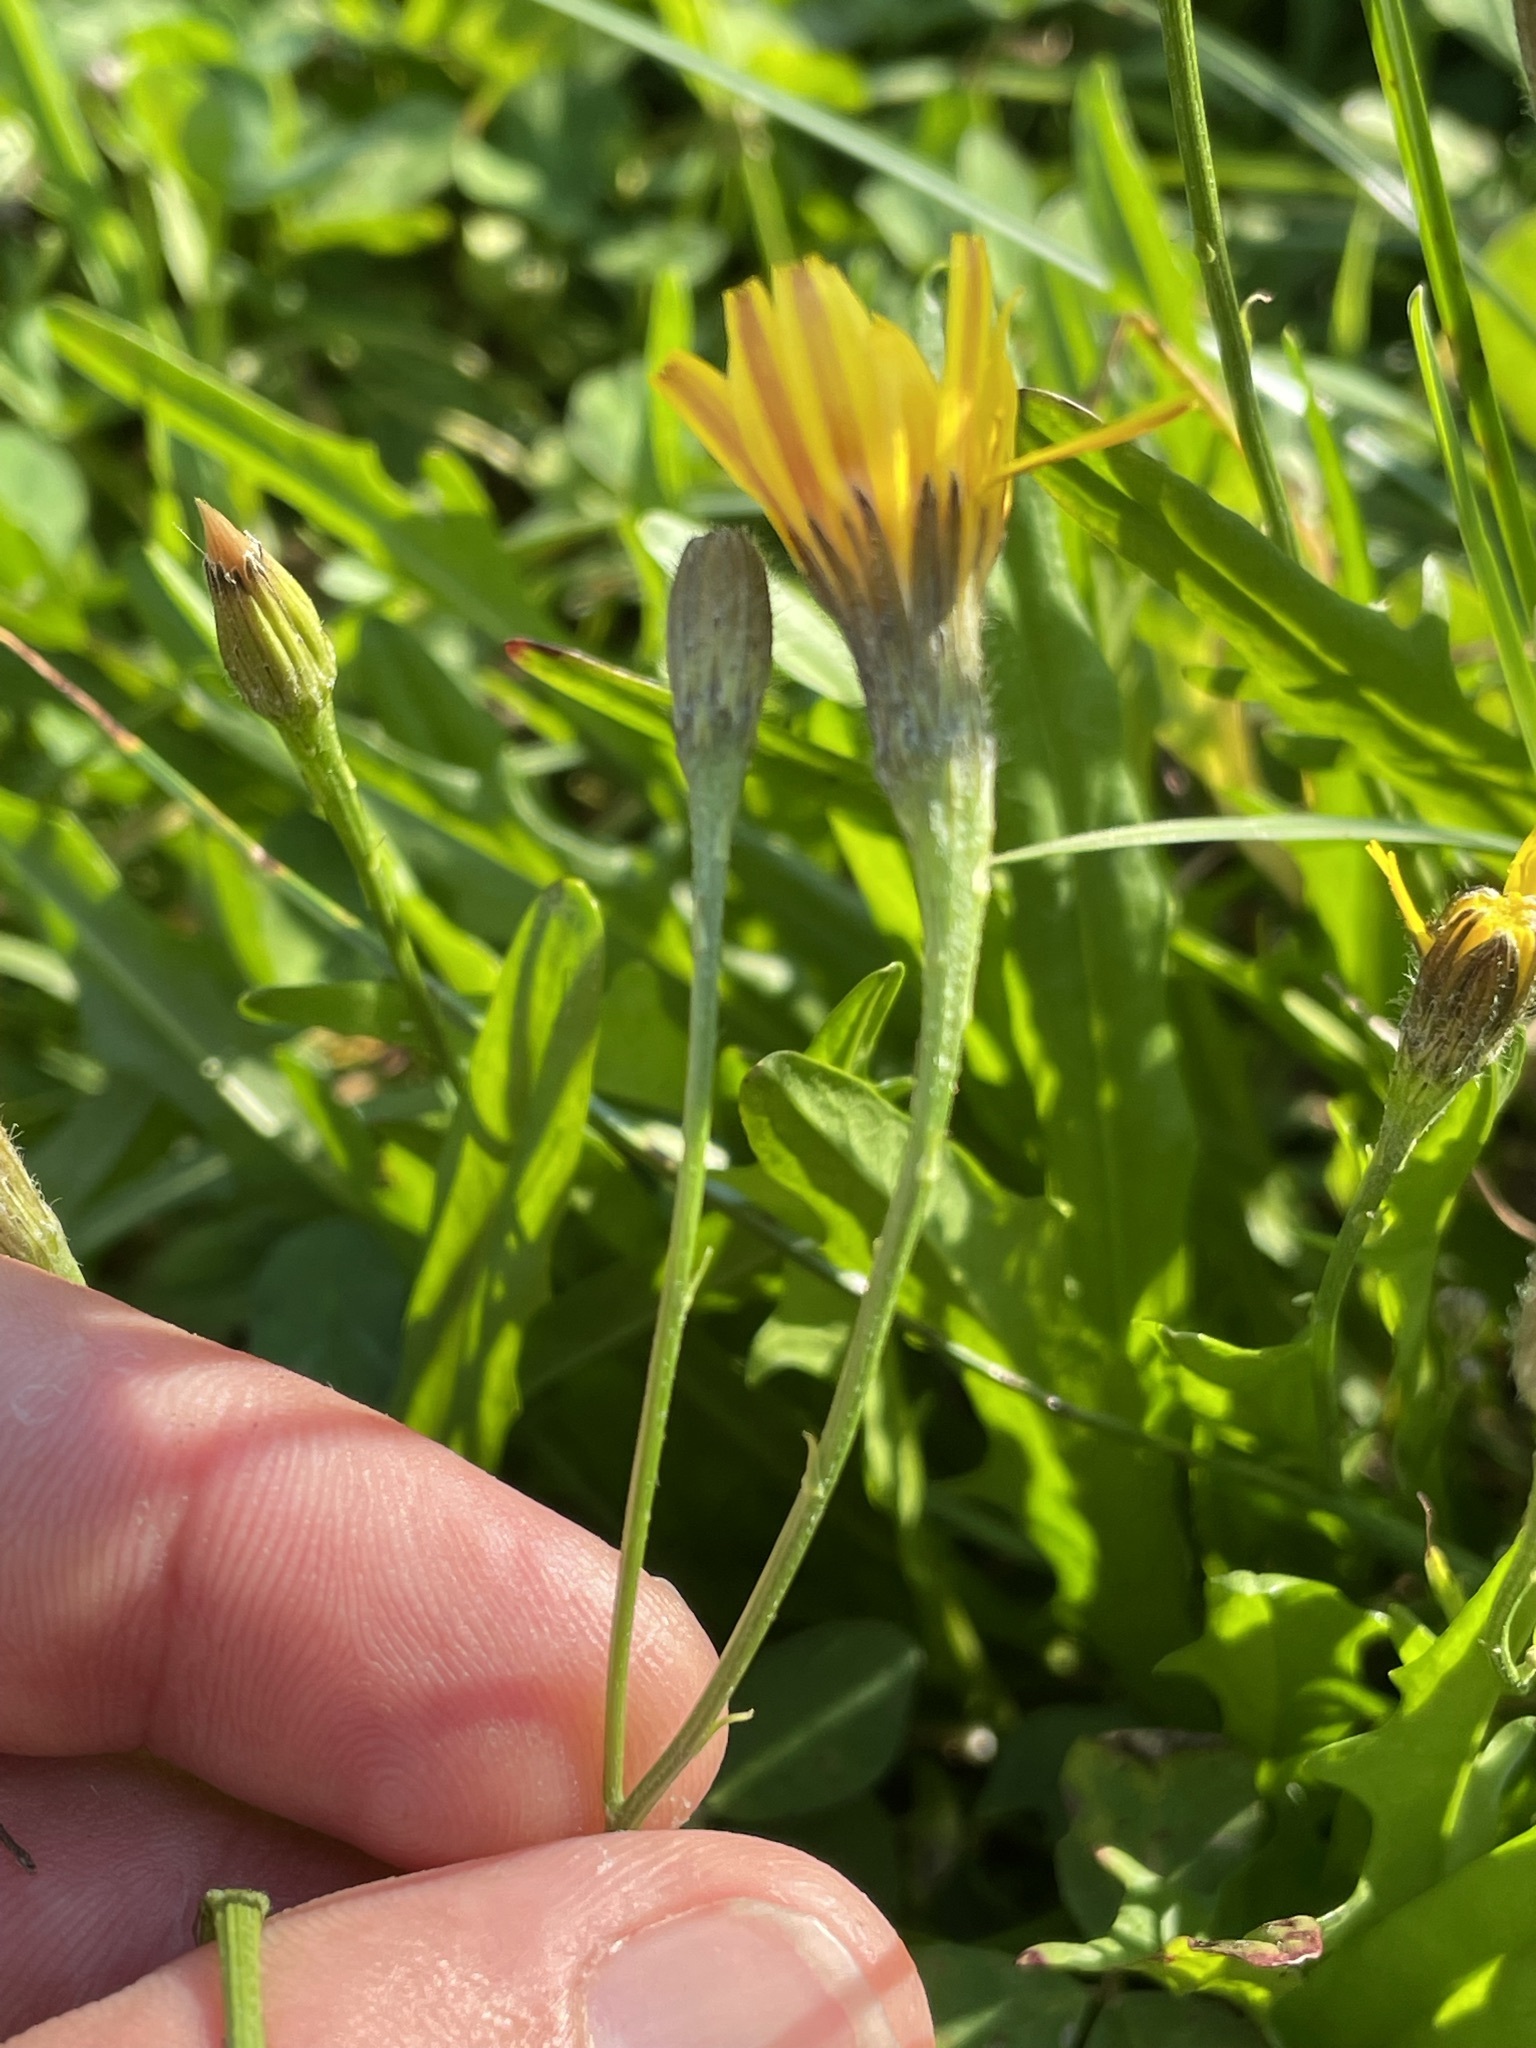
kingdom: Plantae
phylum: Tracheophyta
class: Magnoliopsida
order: Asterales
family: Asteraceae
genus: Scorzoneroides
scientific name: Scorzoneroides autumnalis
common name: Autumn hawkbit
